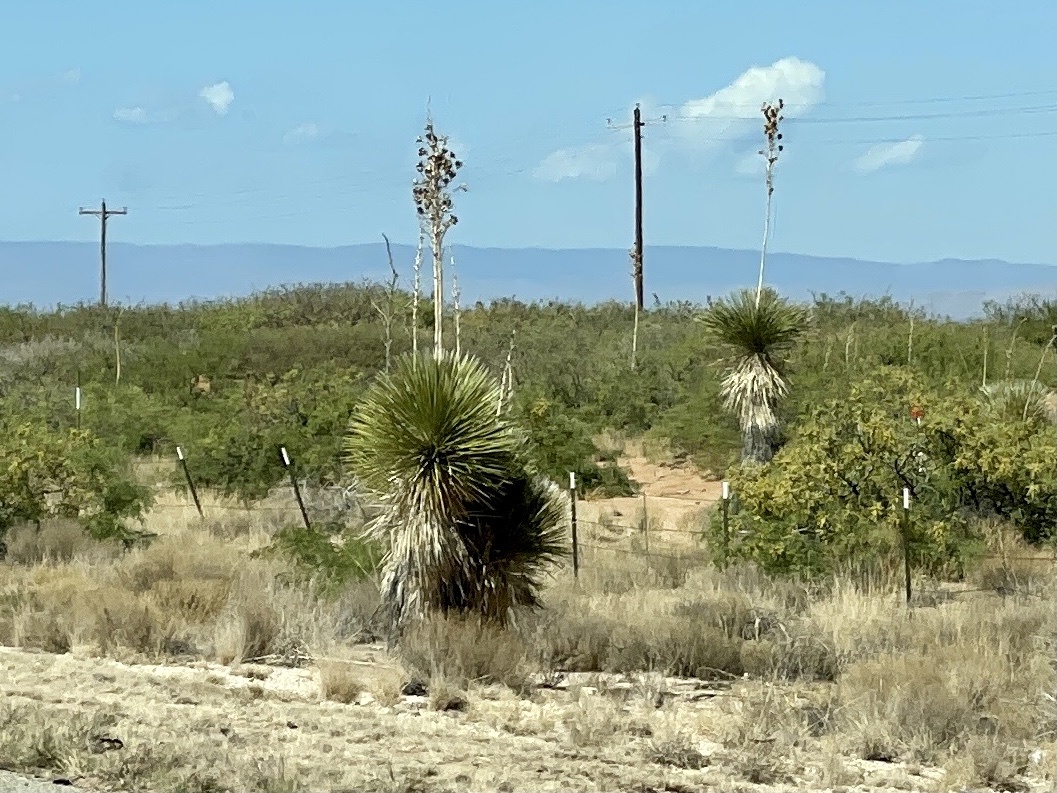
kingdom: Plantae
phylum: Tracheophyta
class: Liliopsida
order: Asparagales
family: Asparagaceae
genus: Yucca
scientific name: Yucca elata
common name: Palmella
